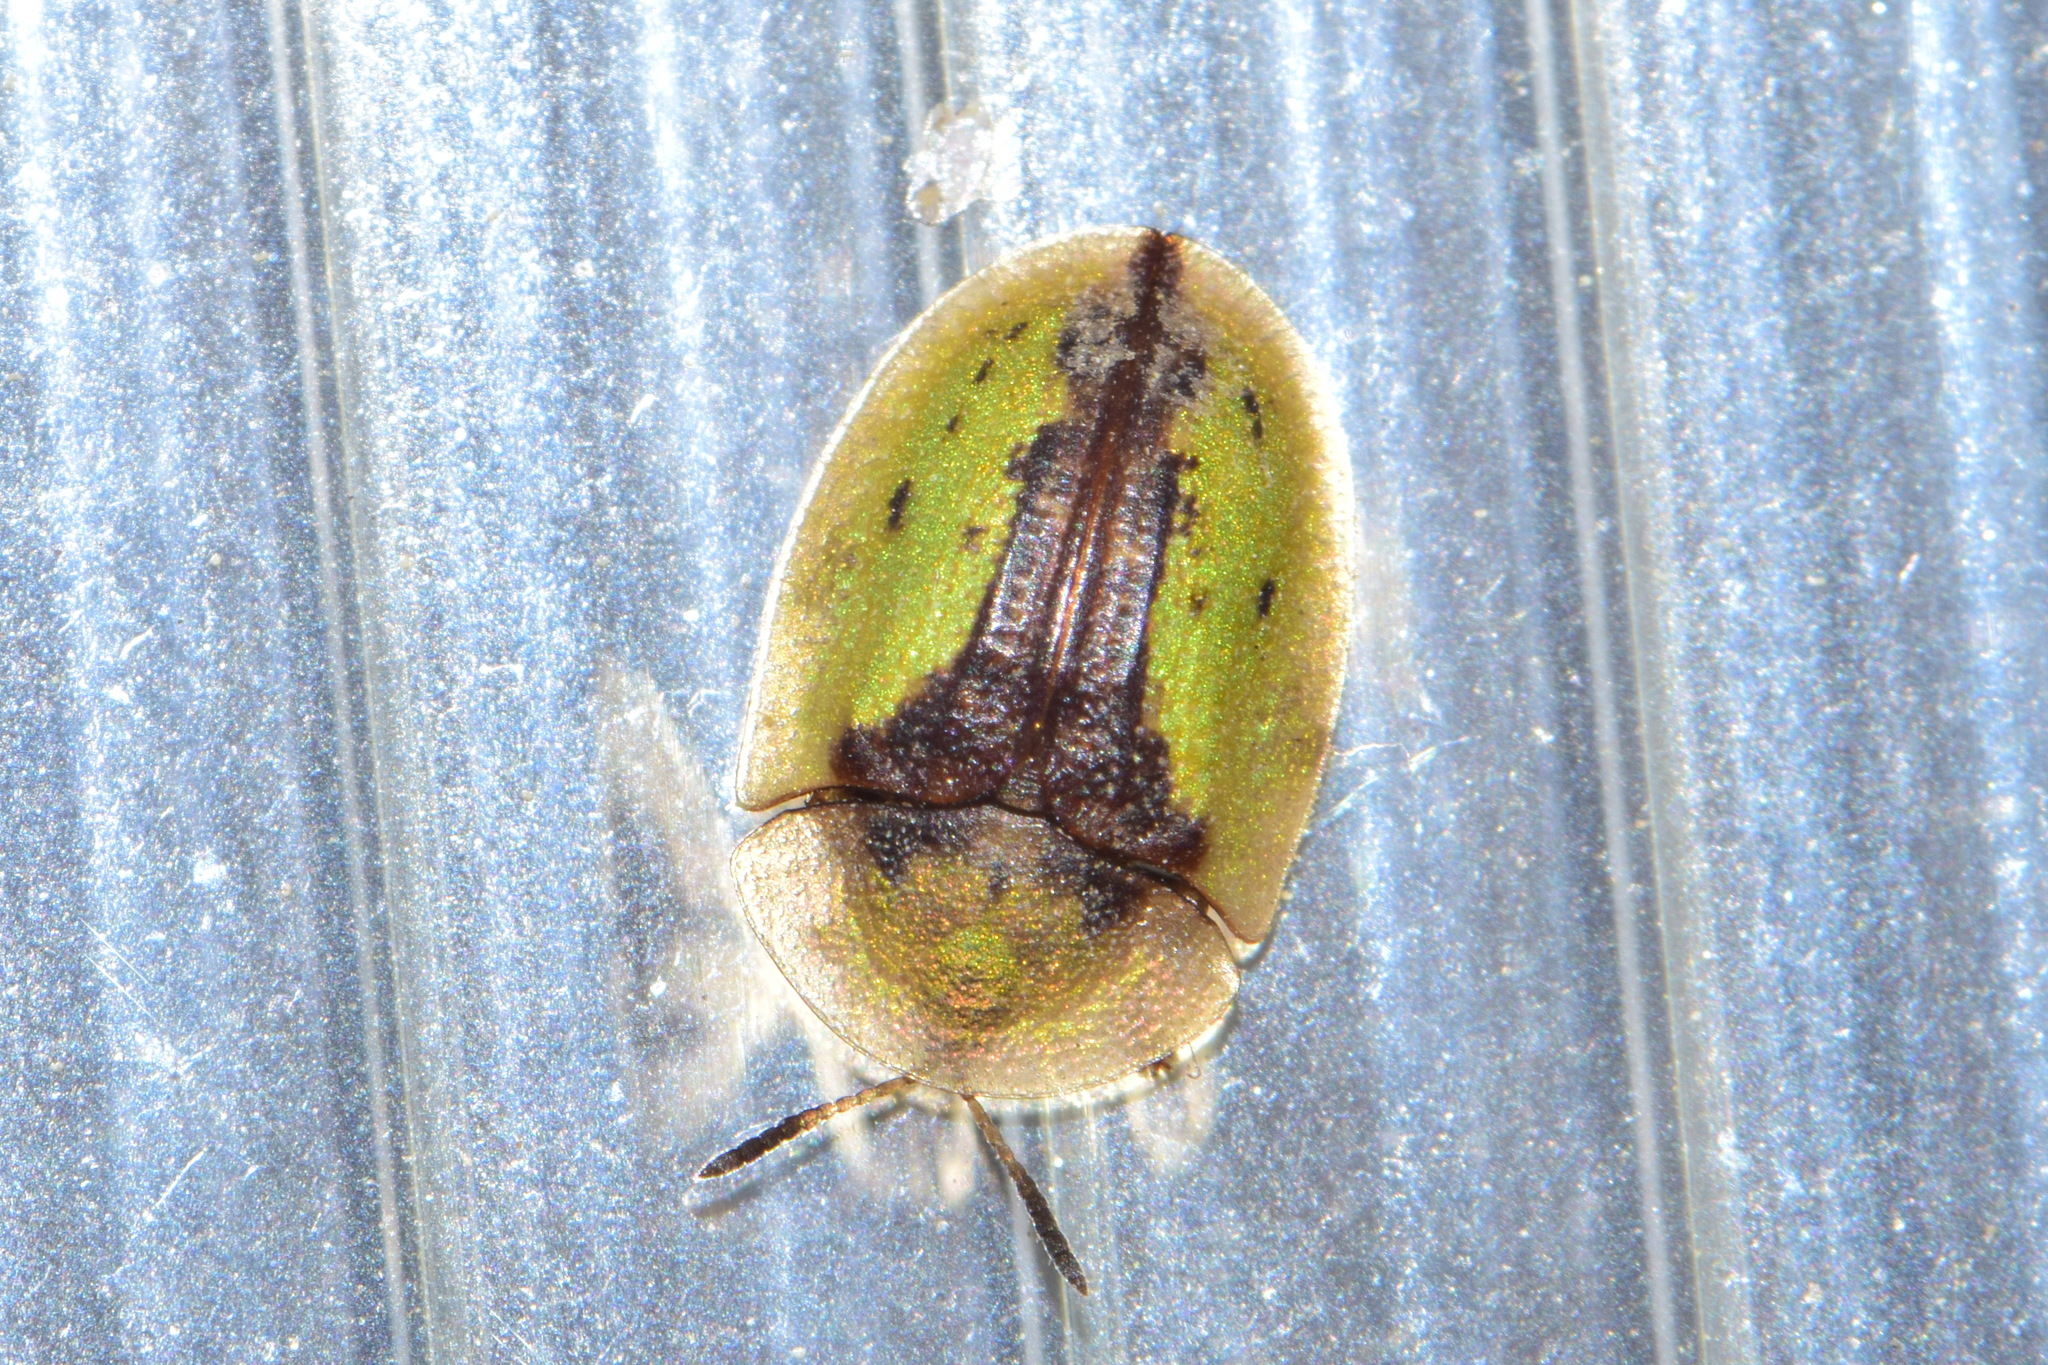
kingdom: Animalia
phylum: Arthropoda
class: Insecta
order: Coleoptera
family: Chrysomelidae
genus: Cassida
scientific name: Cassida vibex
